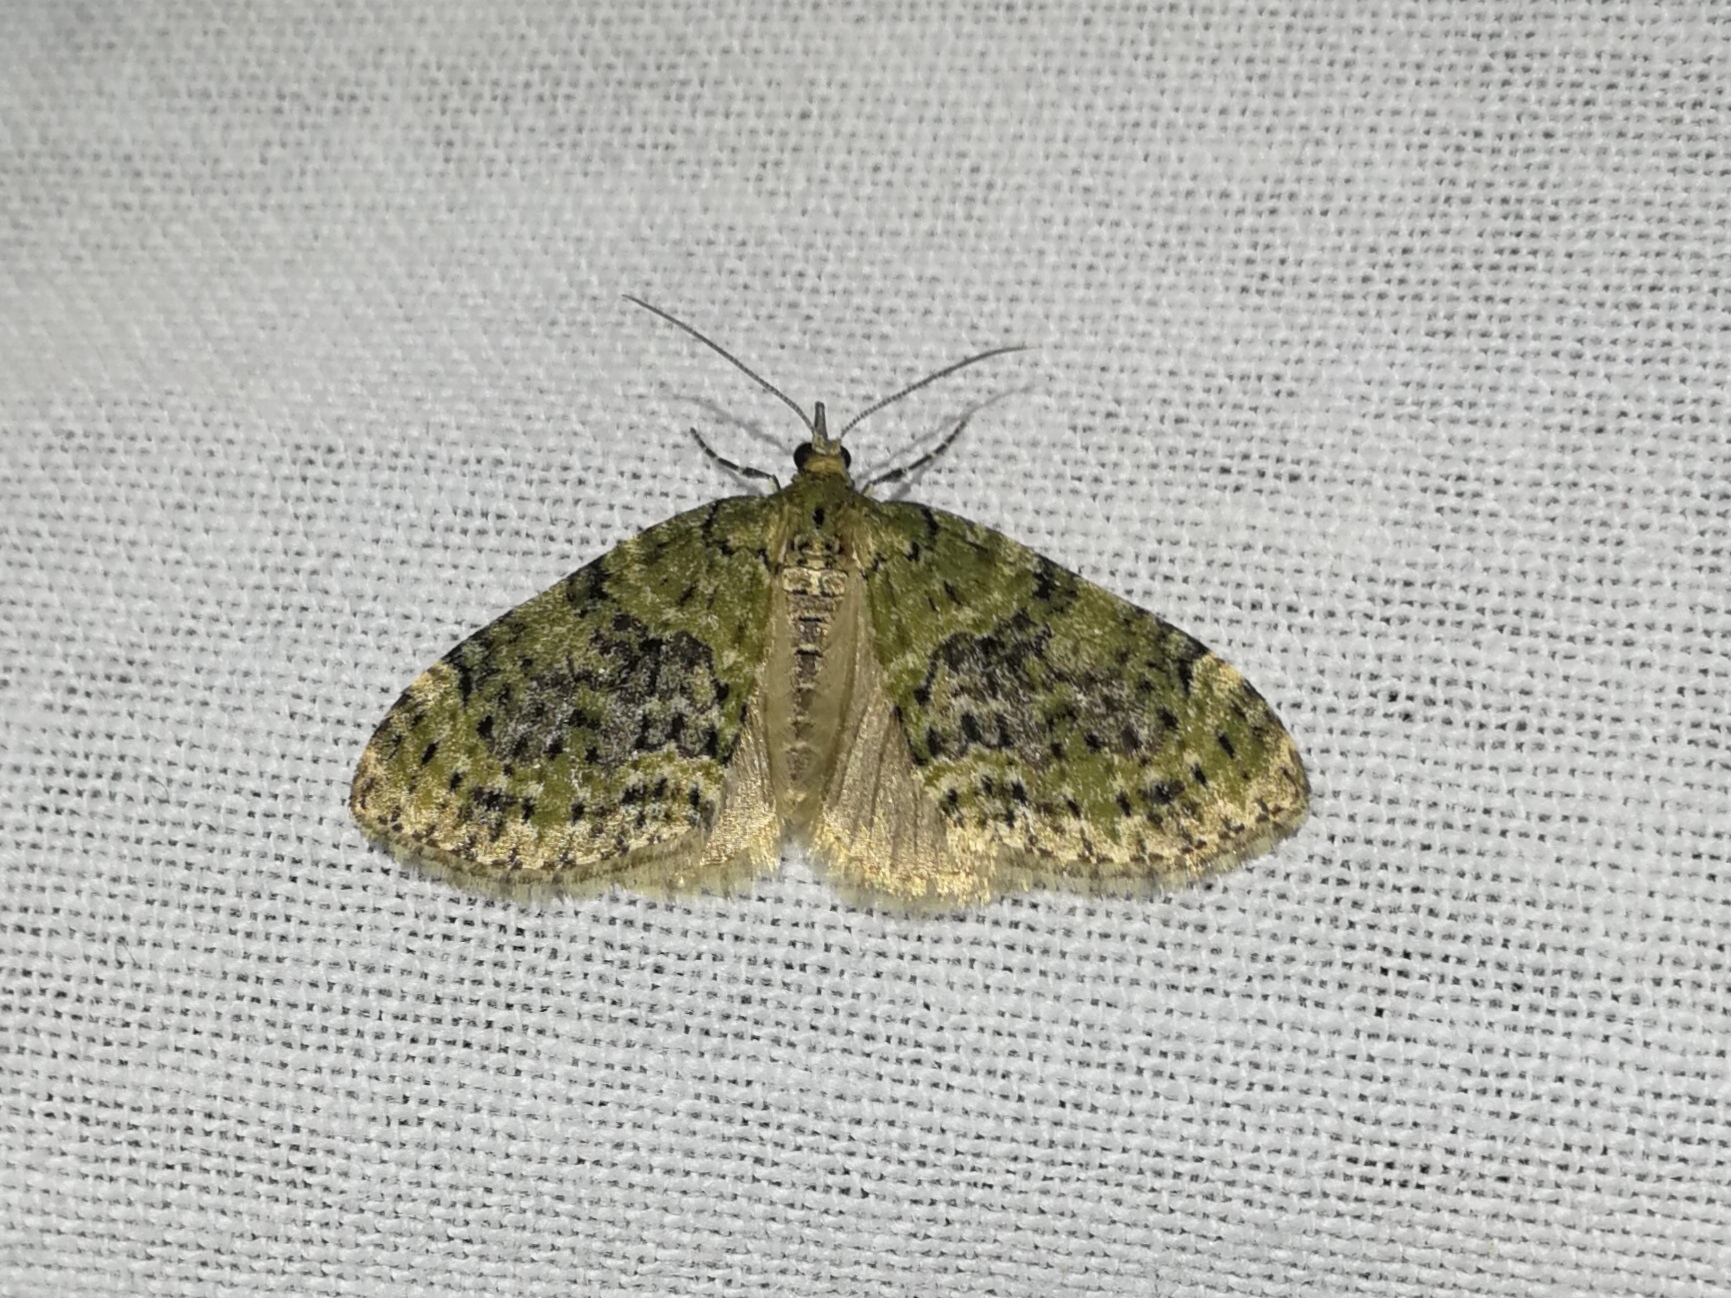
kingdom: Animalia
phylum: Arthropoda
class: Insecta
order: Lepidoptera
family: Geometridae
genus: Acasis
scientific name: Acasis viretata
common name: Yellow-barred brindle
